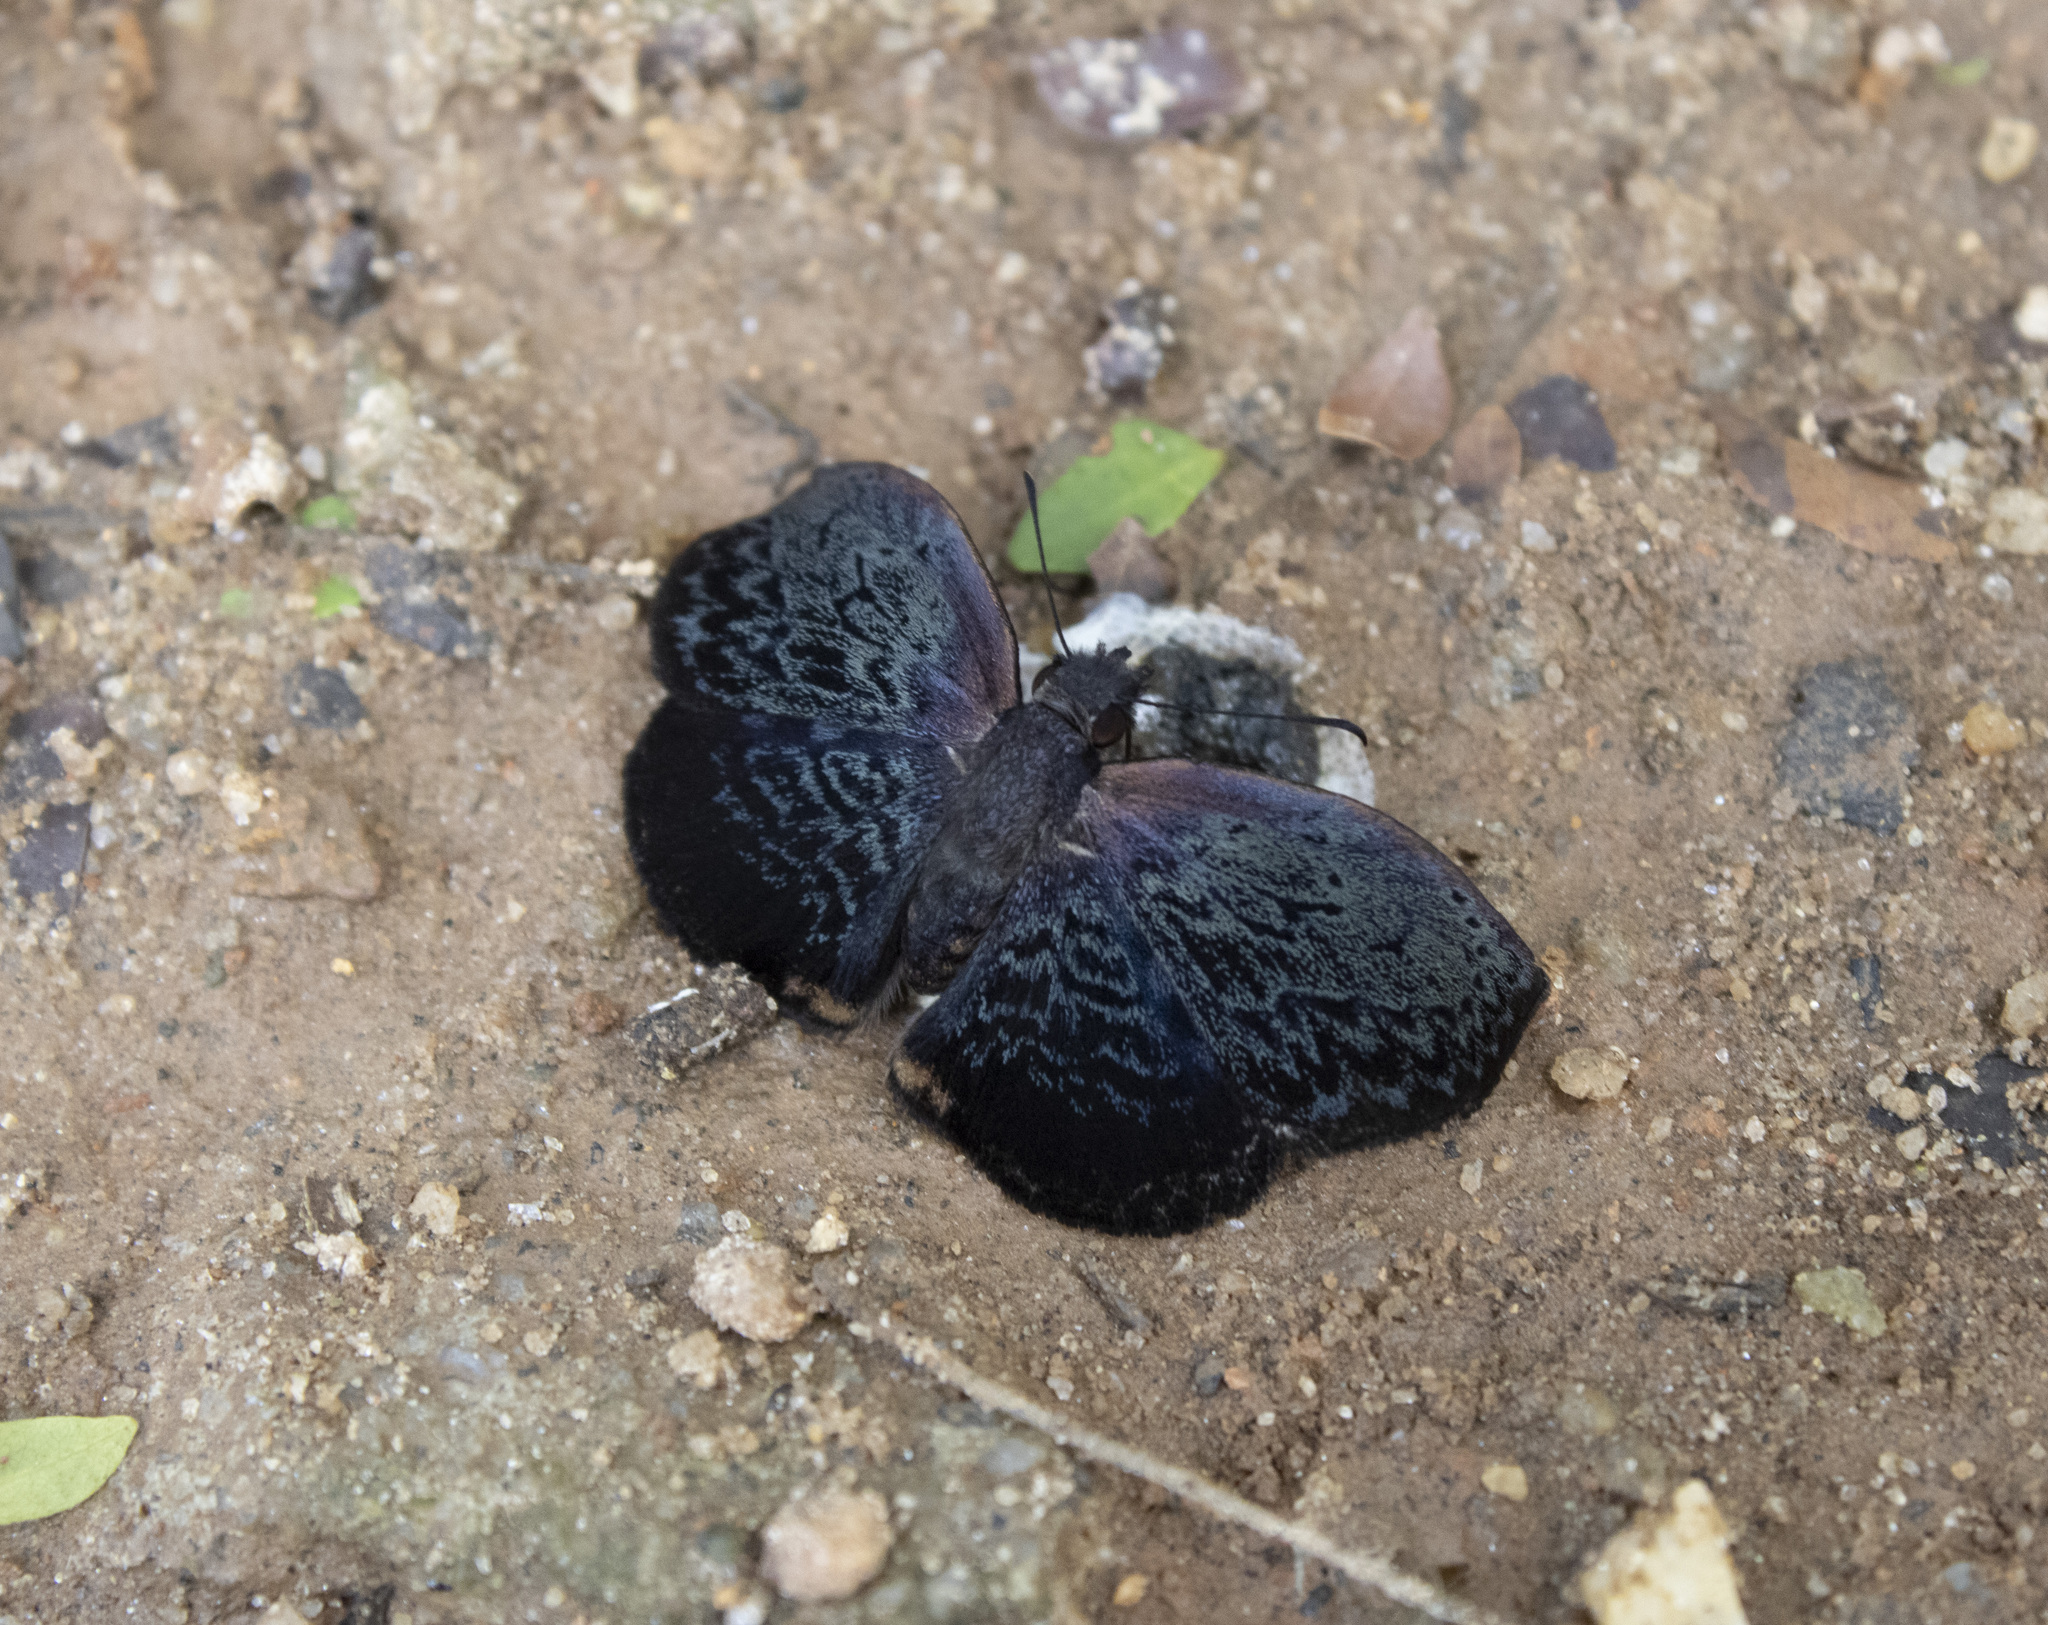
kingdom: Animalia
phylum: Arthropoda
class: Insecta
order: Lepidoptera
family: Hesperiidae
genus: Cycloglypha
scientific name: Cycloglypha enega
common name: Enega bent-skipper
